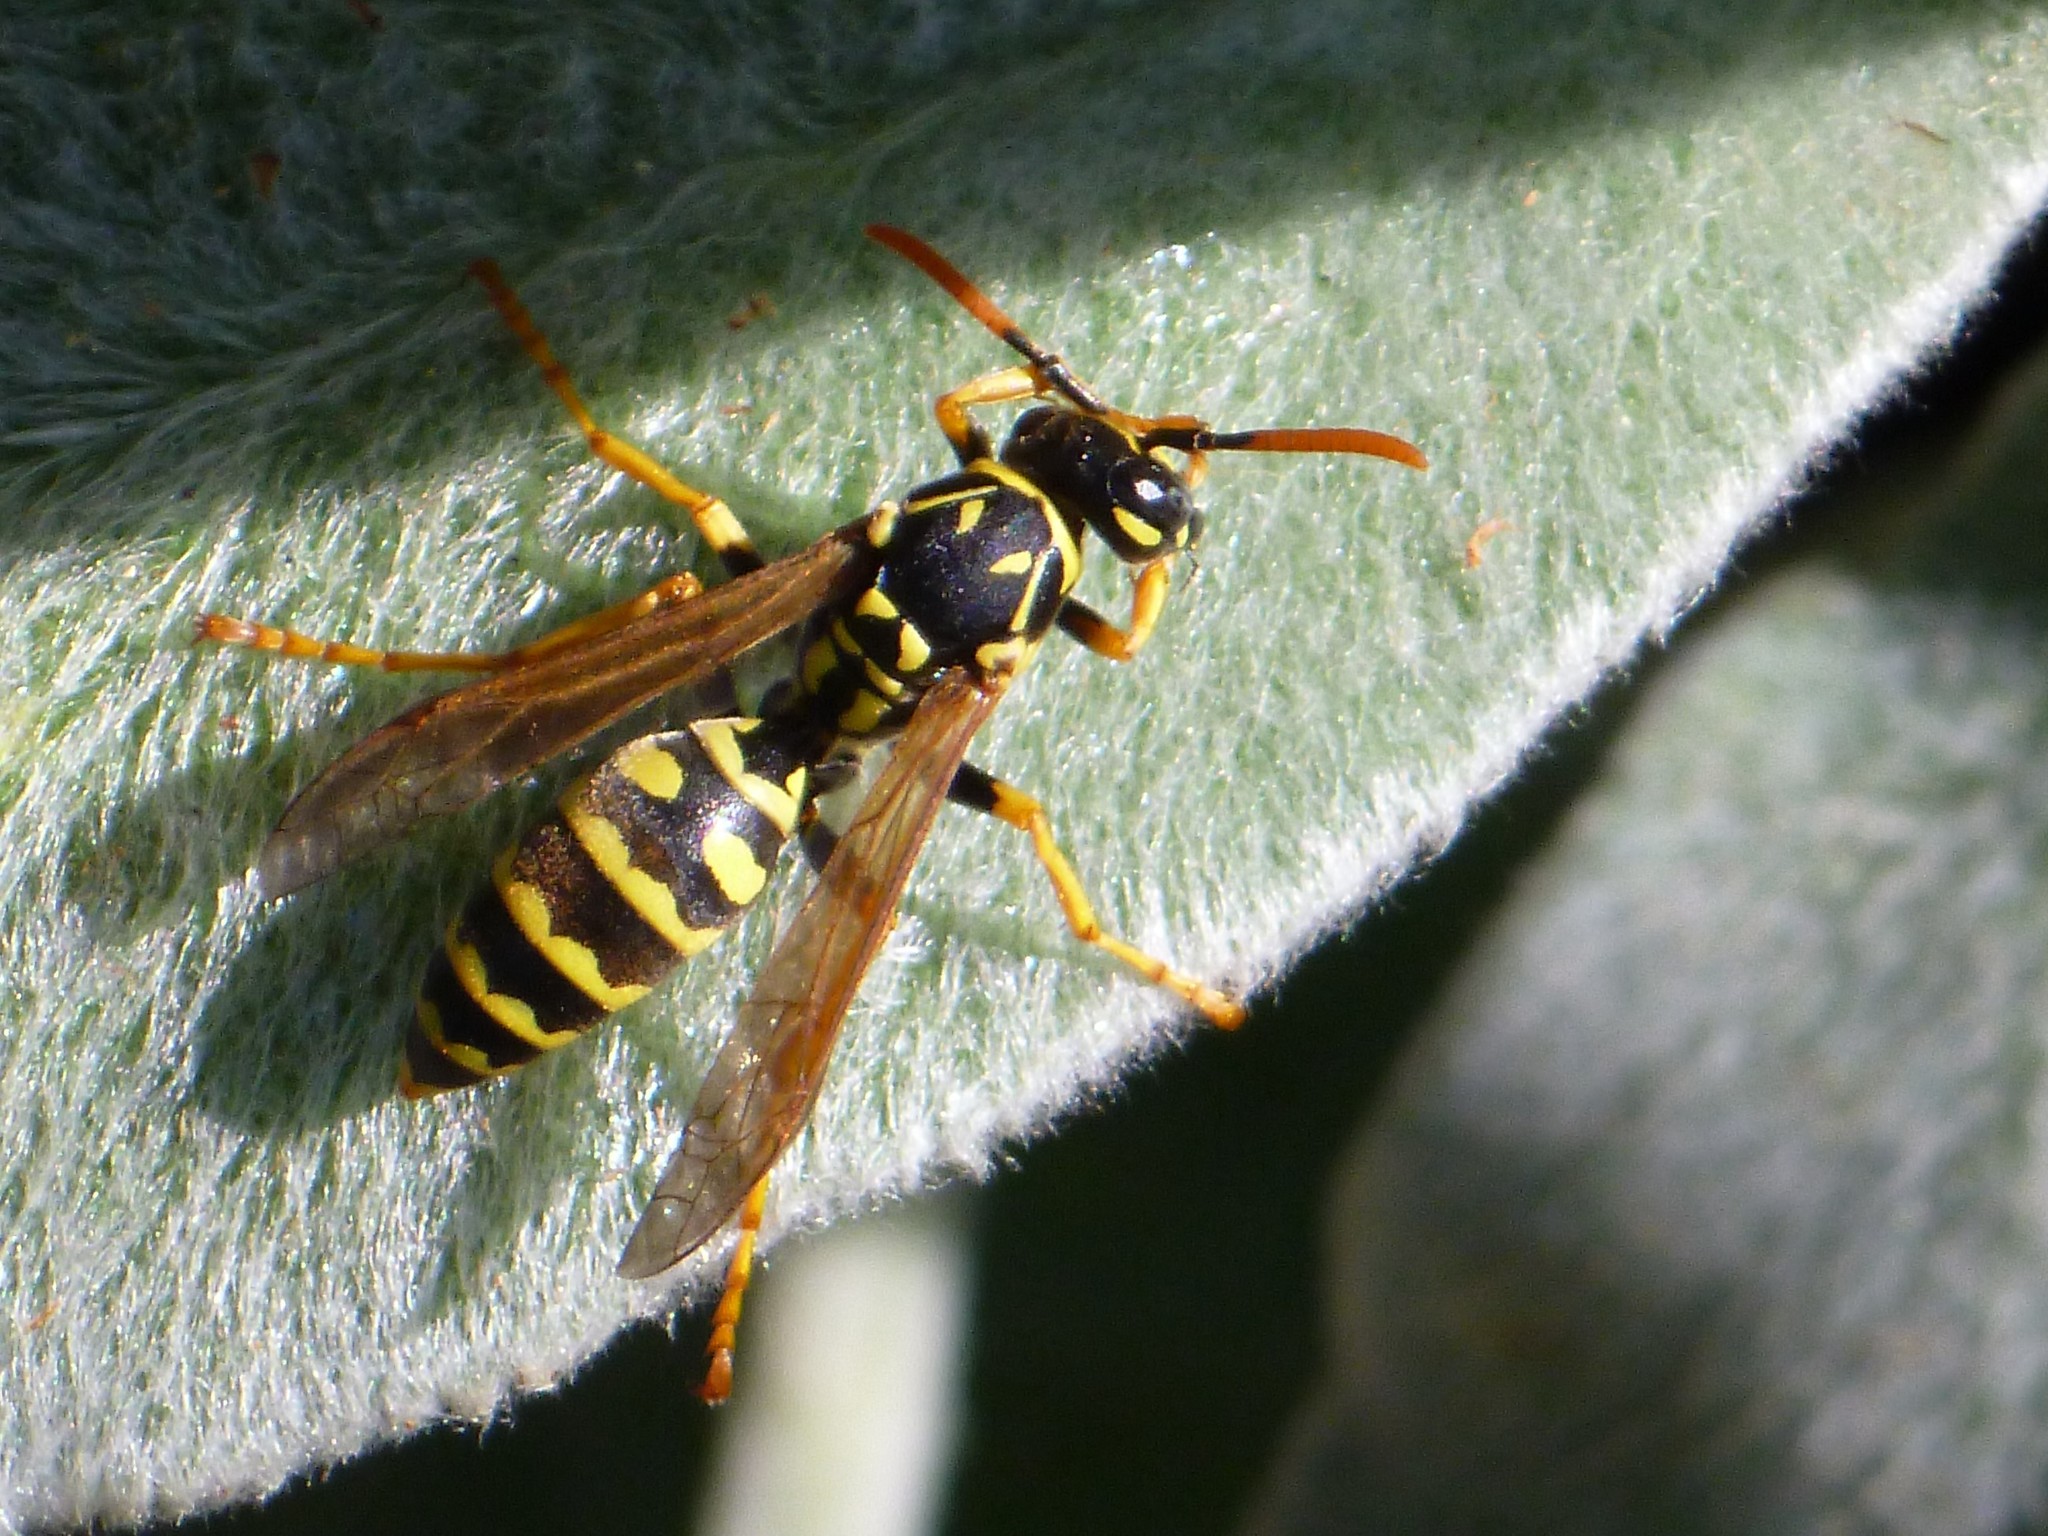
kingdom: Animalia
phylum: Arthropoda
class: Insecta
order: Hymenoptera
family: Eumenidae
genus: Polistes
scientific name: Polistes dominula
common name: Paper wasp
